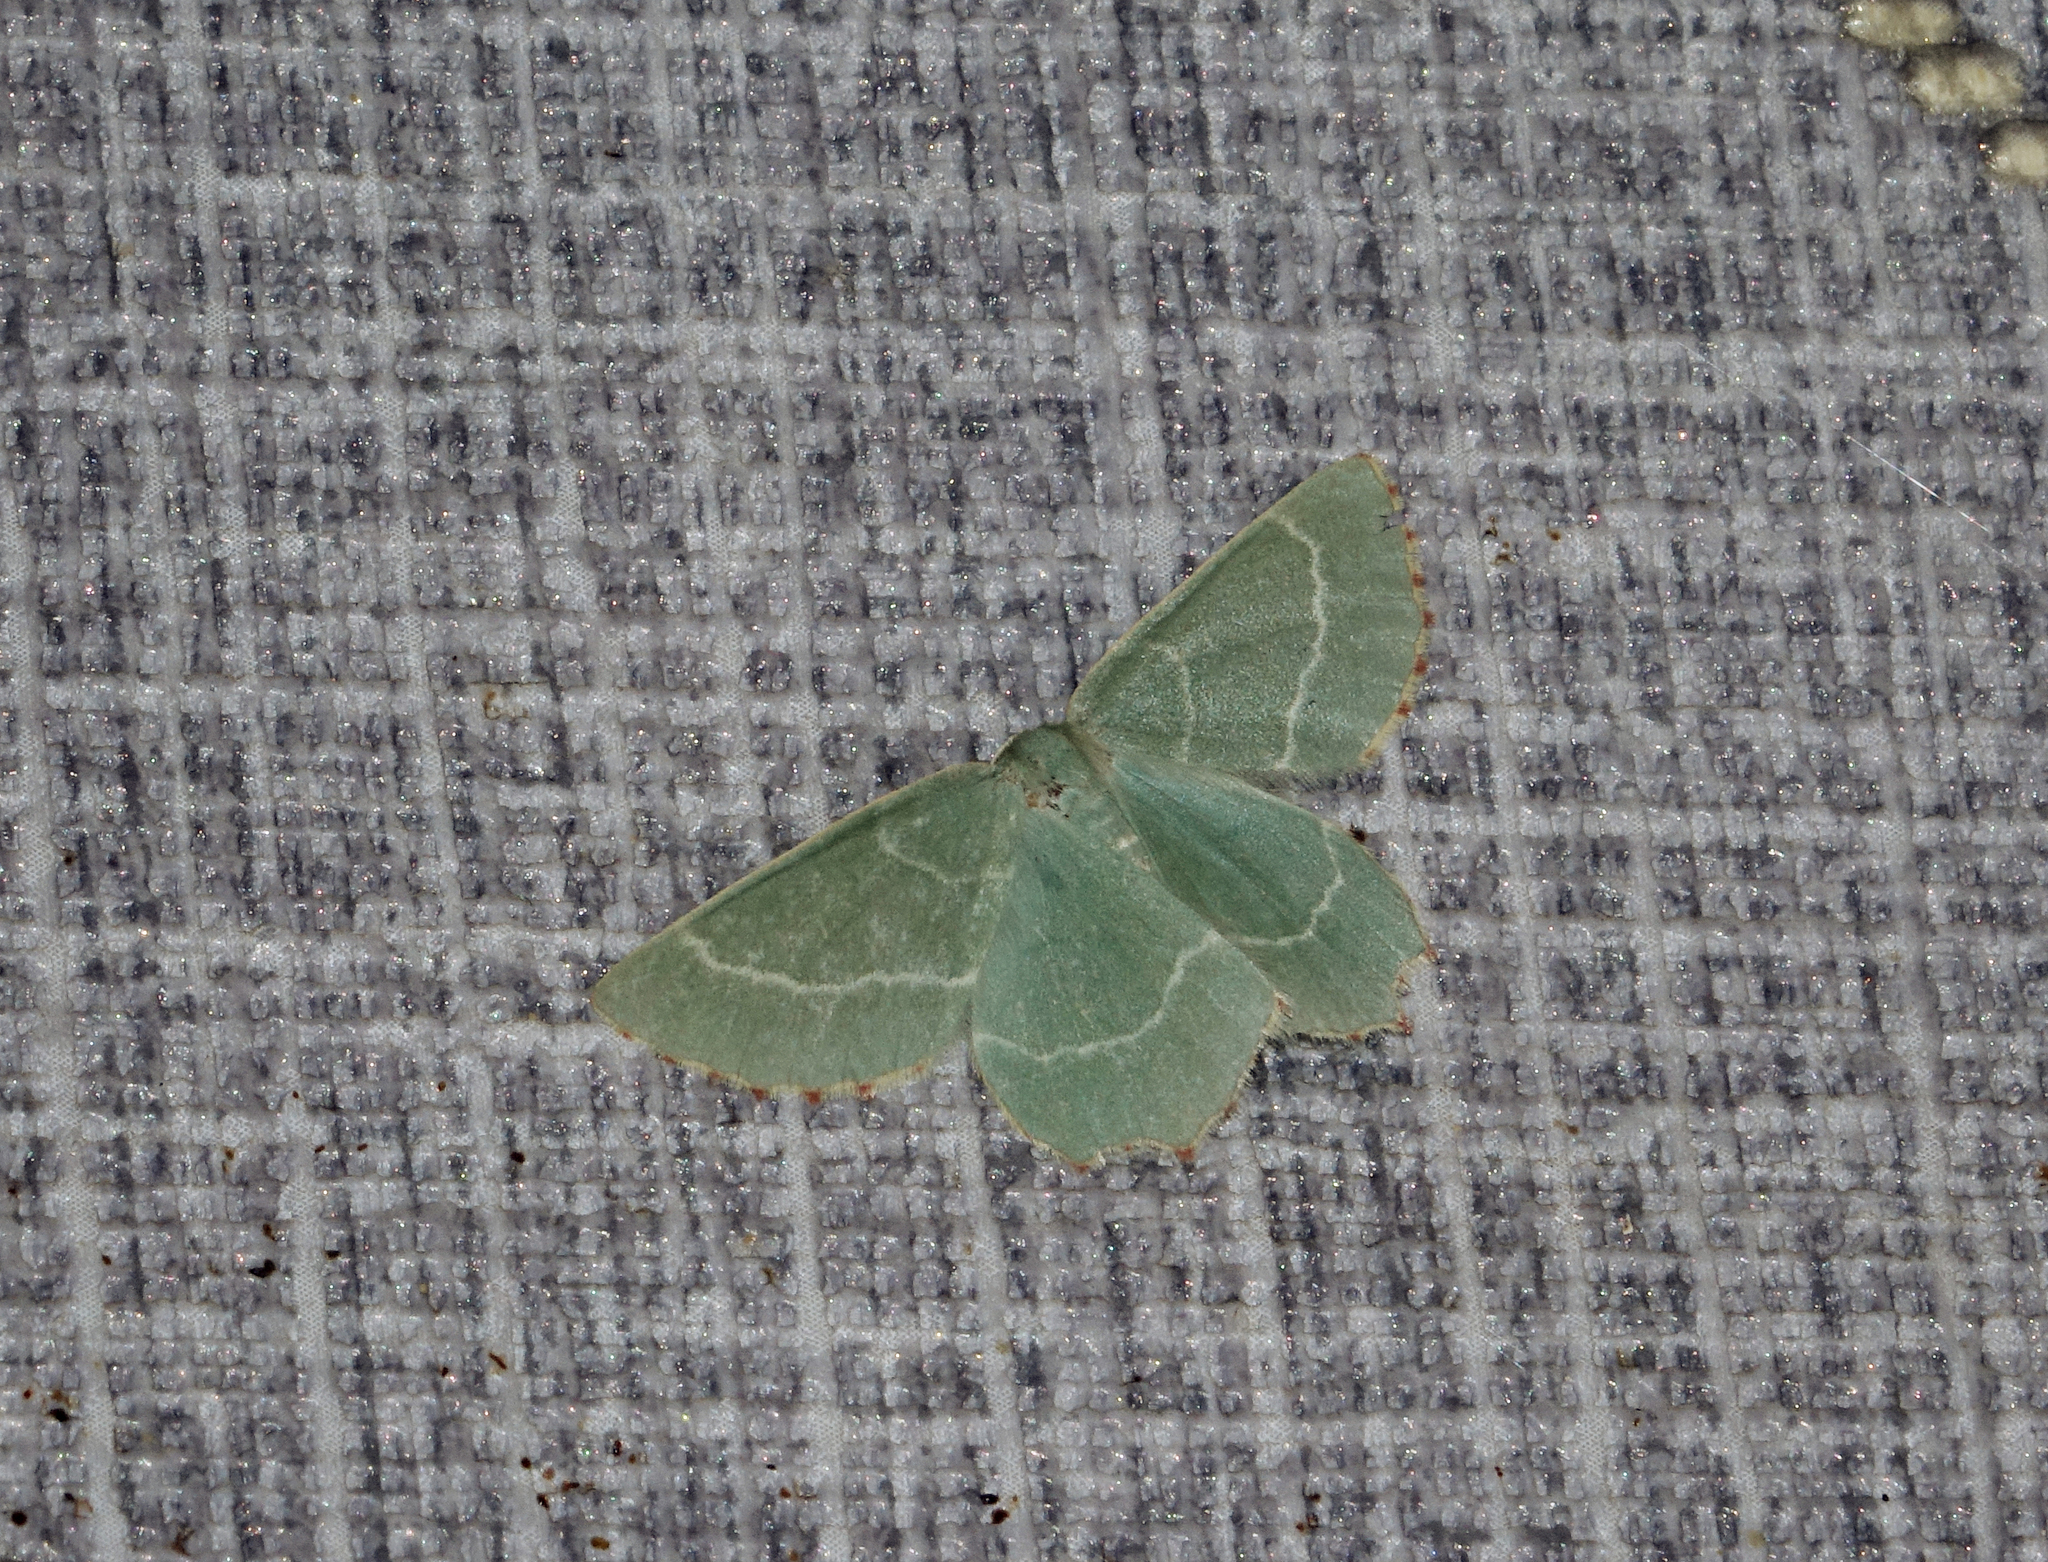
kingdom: Animalia
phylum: Arthropoda
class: Insecta
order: Lepidoptera
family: Geometridae
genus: Thalera
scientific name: Thalera fimbrialis
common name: Sussex emerald
